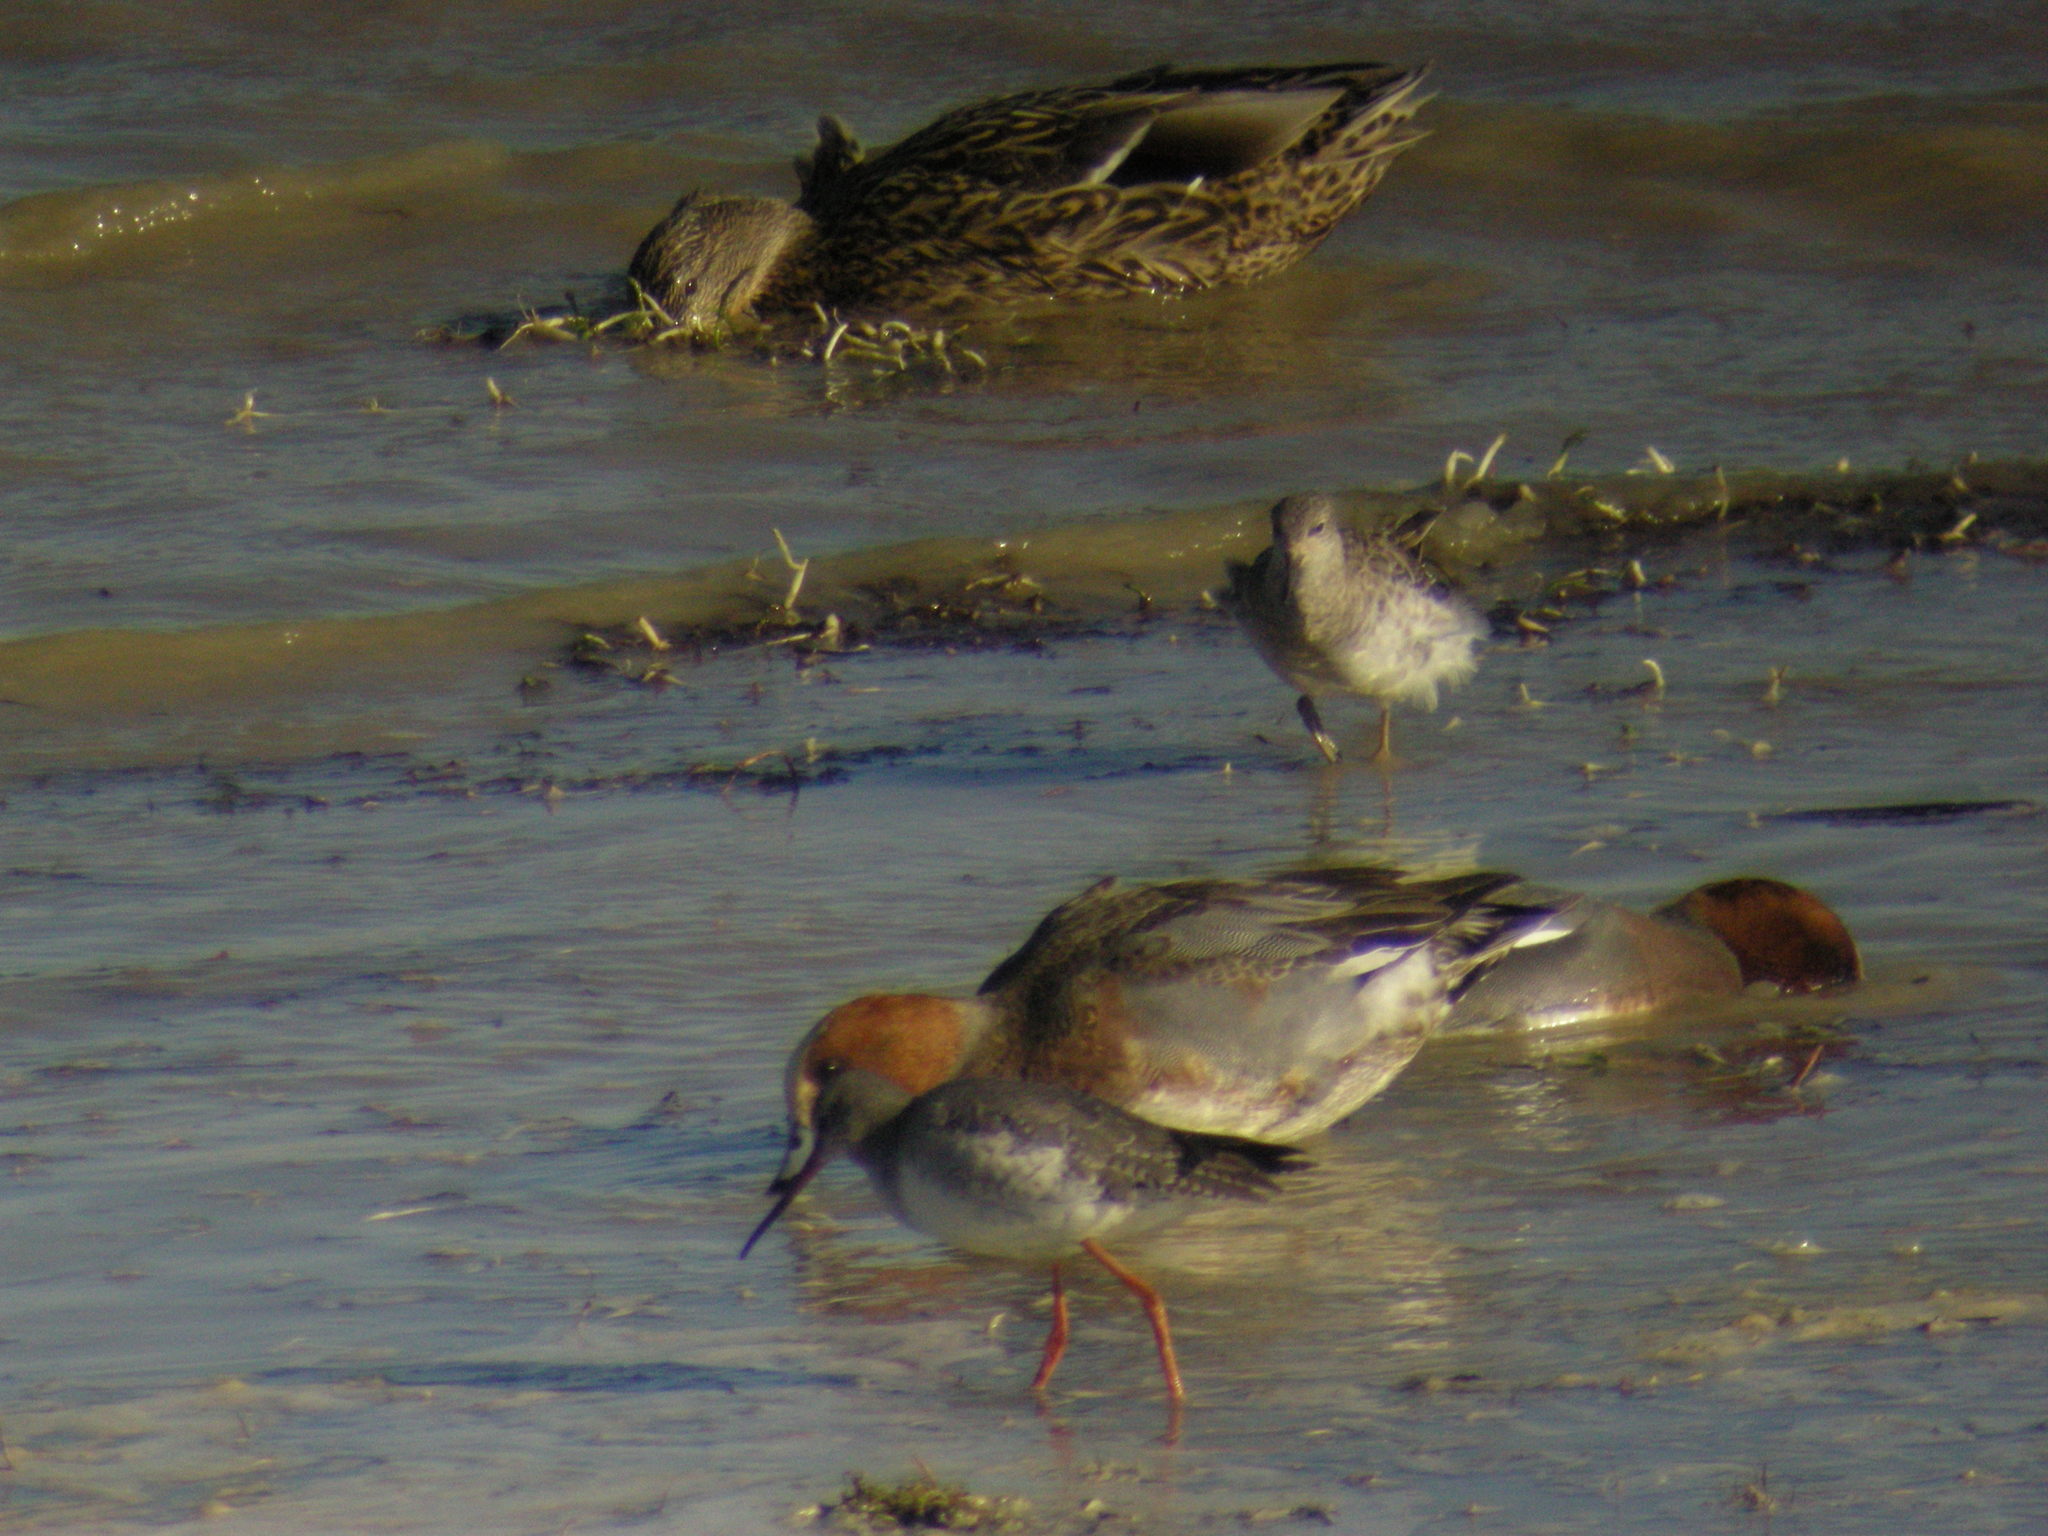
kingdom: Animalia
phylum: Chordata
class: Aves
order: Charadriiformes
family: Scolopacidae
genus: Calidris
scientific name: Calidris pugnax
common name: Ruff
